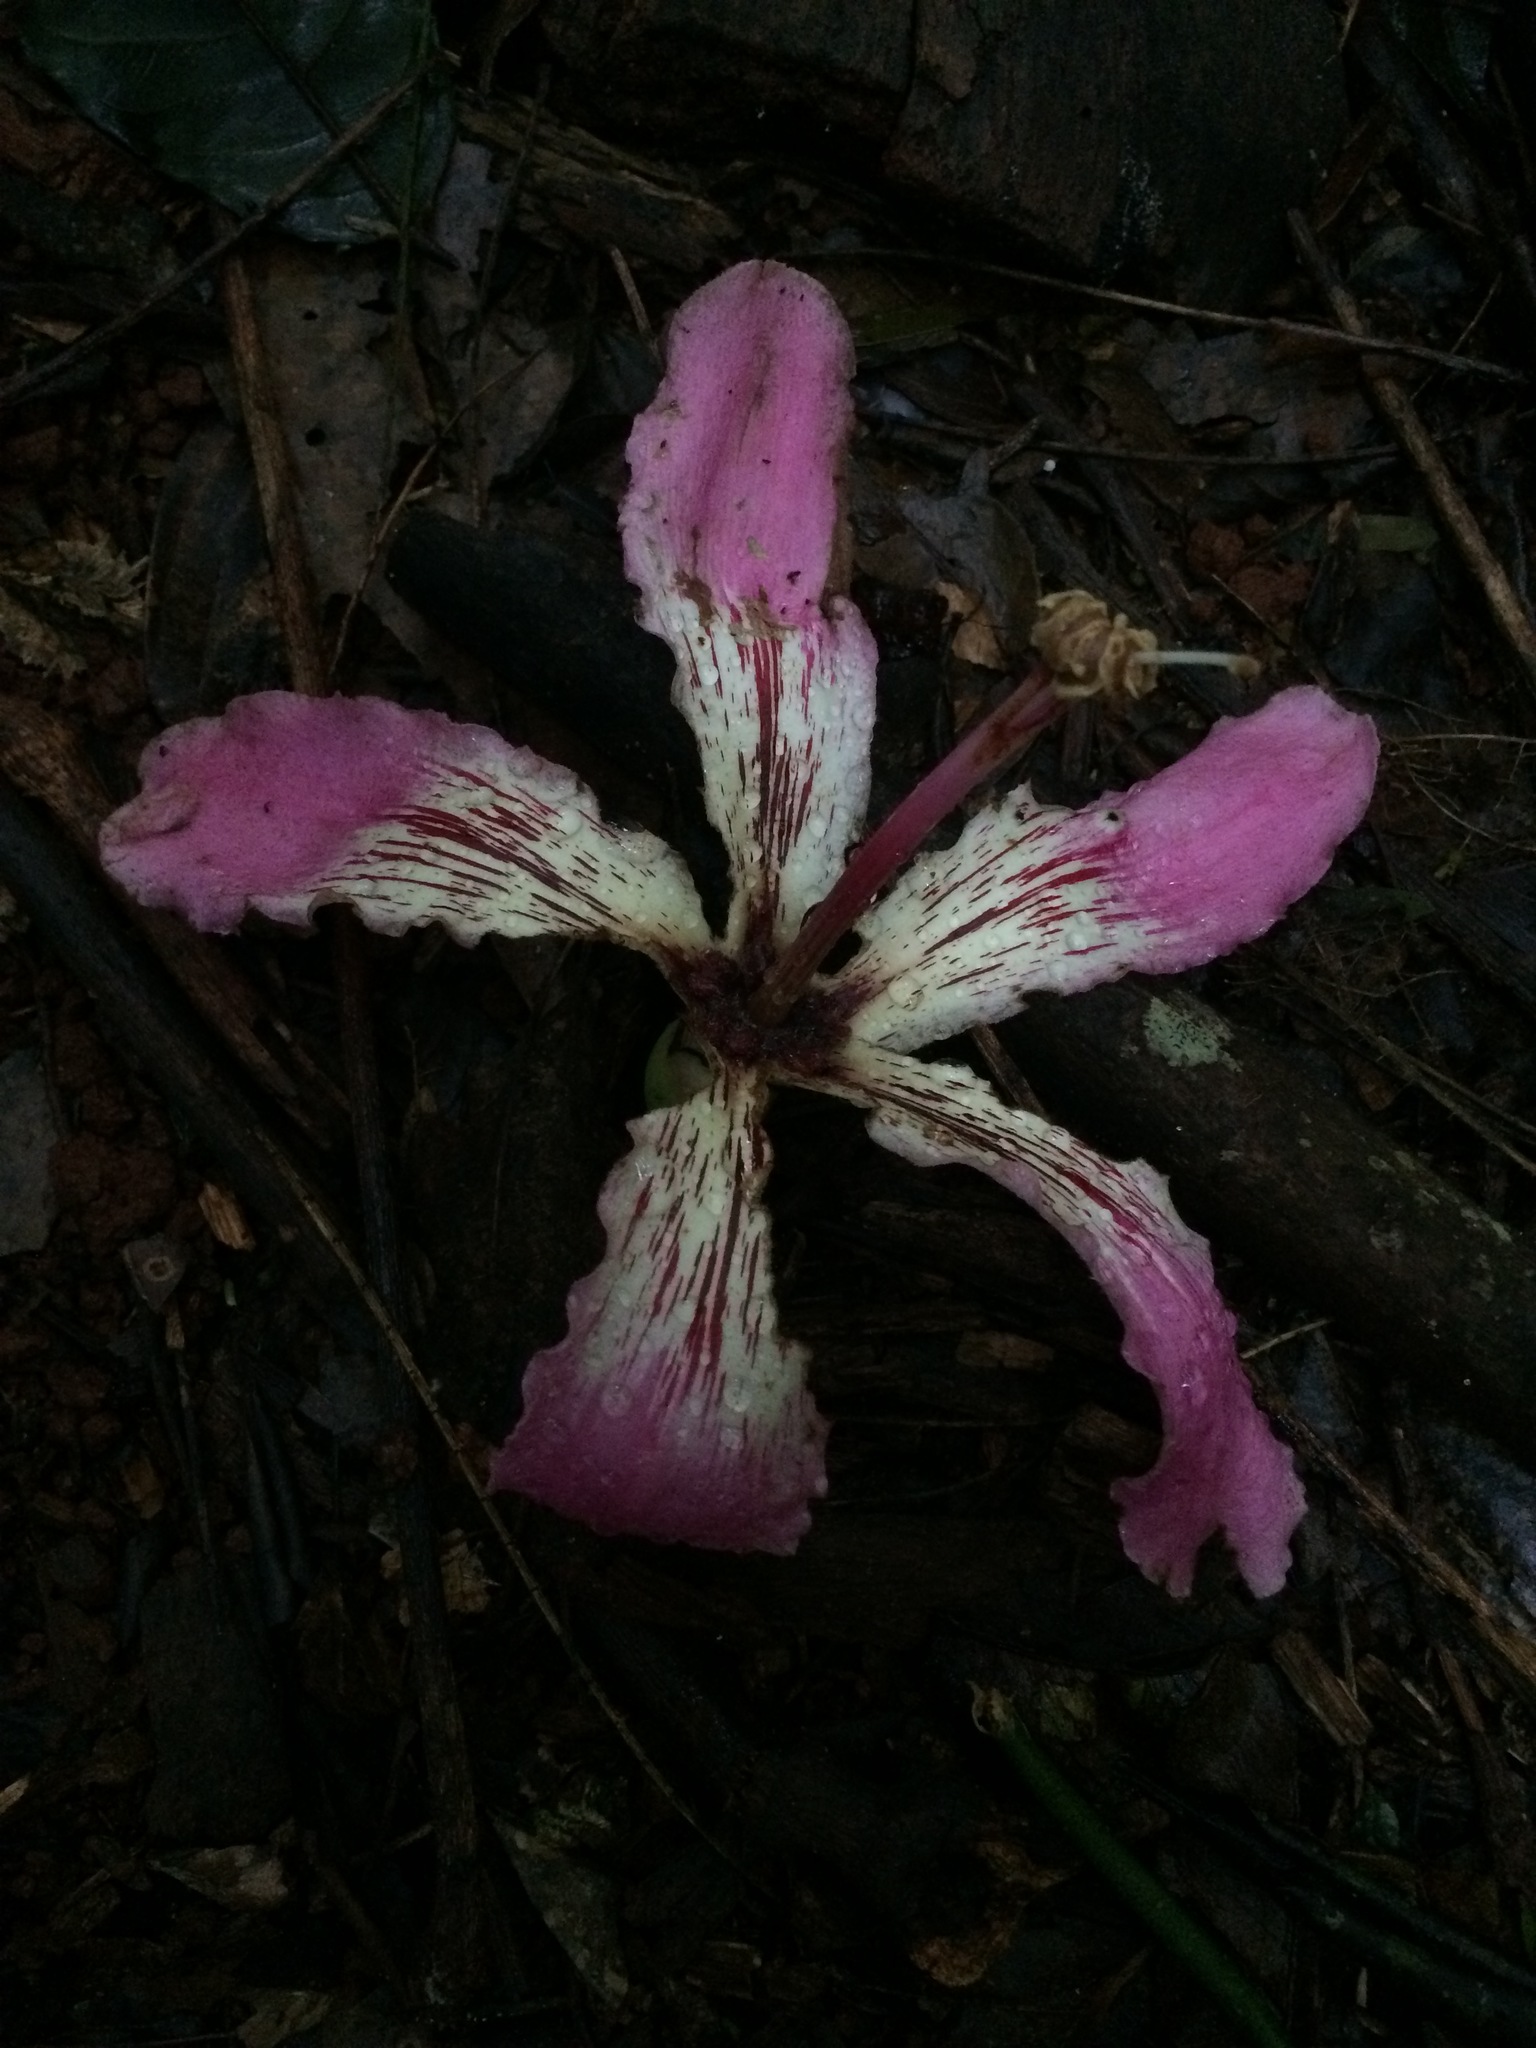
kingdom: Plantae
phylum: Tracheophyta
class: Magnoliopsida
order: Malvales
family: Malvaceae
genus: Ceiba
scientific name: Ceiba speciosa
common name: Silk-floss tree
